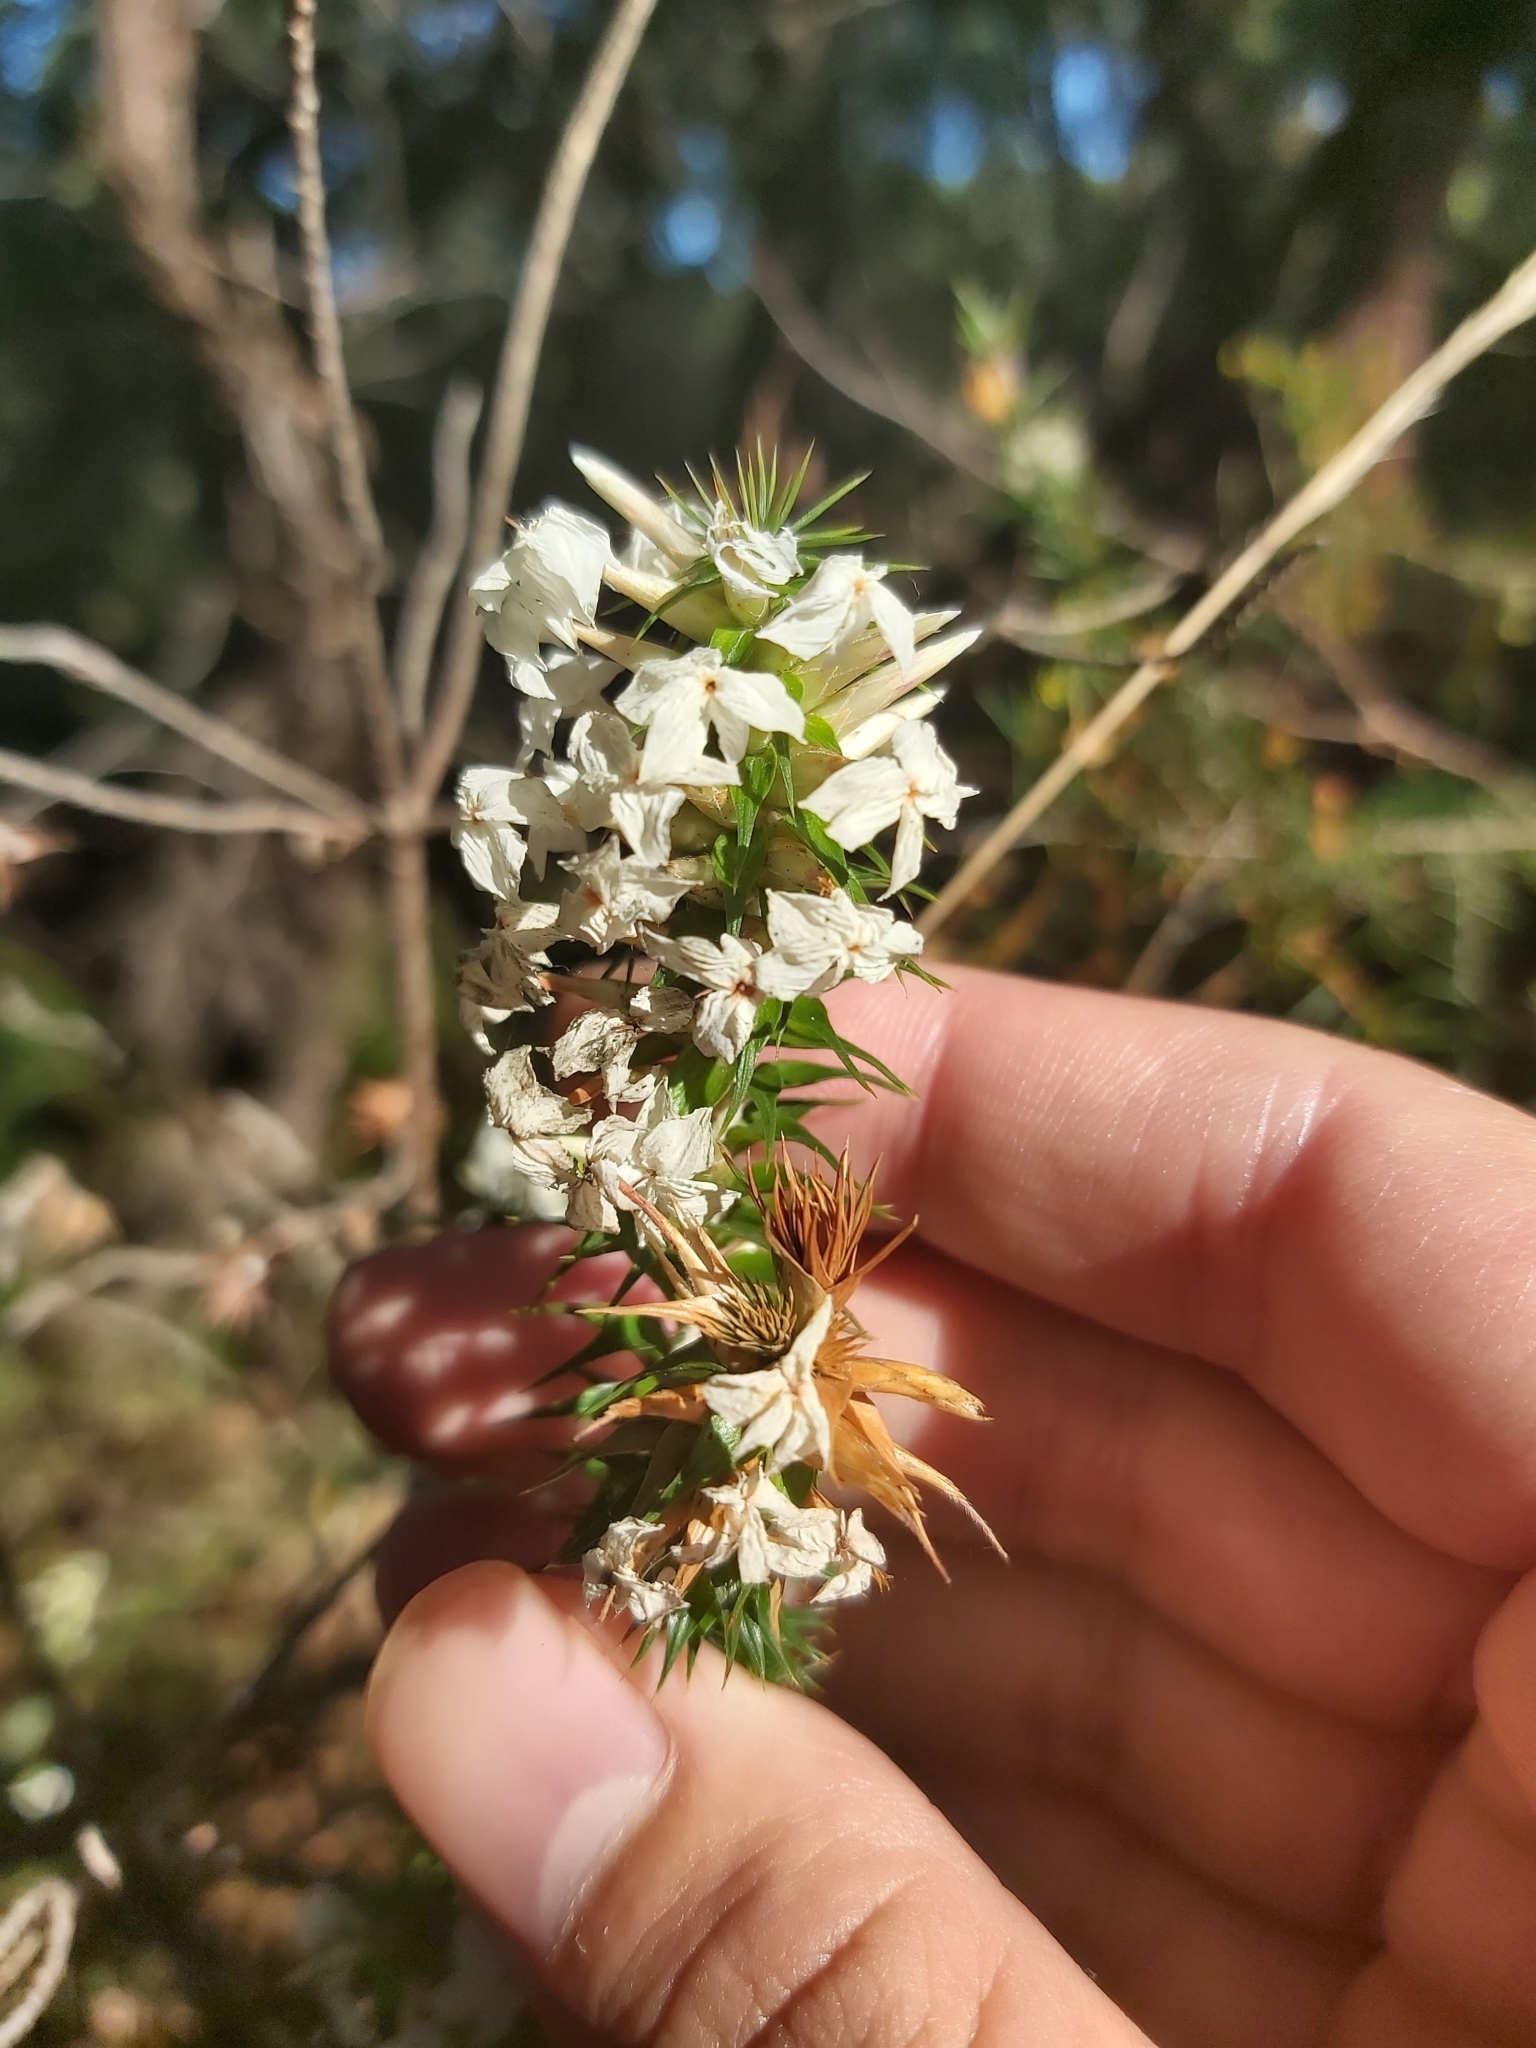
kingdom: Plantae
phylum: Tracheophyta
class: Magnoliopsida
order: Ericales
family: Ericaceae
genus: Woollsia
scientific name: Woollsia pungens
